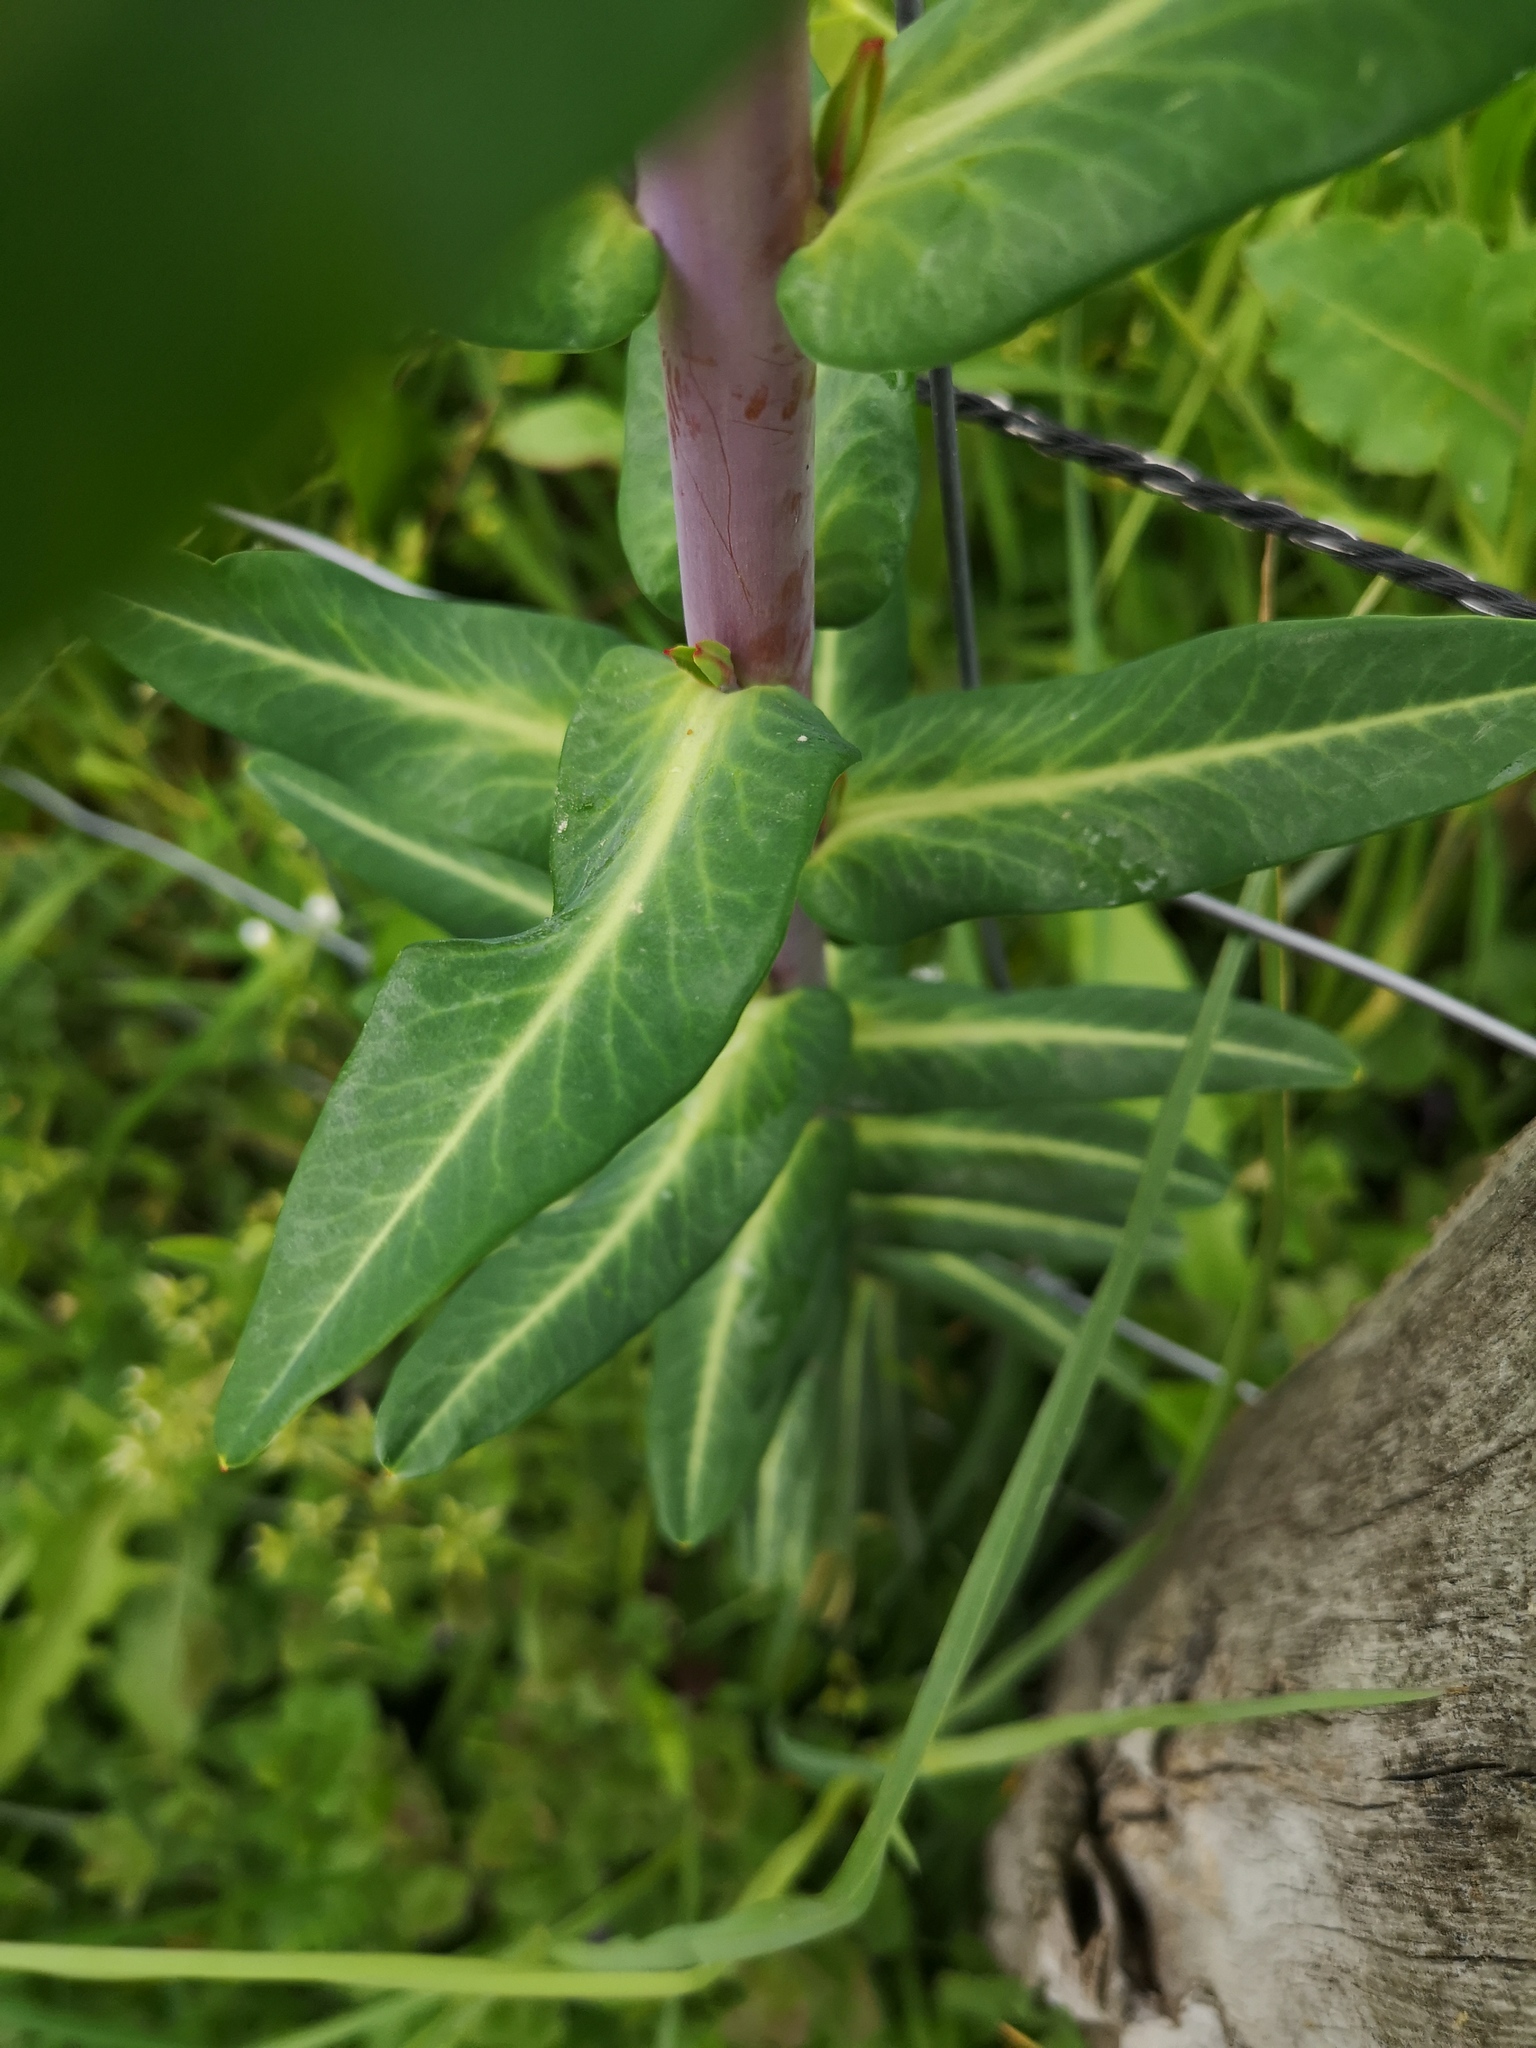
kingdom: Plantae
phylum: Tracheophyta
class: Magnoliopsida
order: Malpighiales
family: Euphorbiaceae
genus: Euphorbia
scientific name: Euphorbia lathyris
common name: Caper spurge
